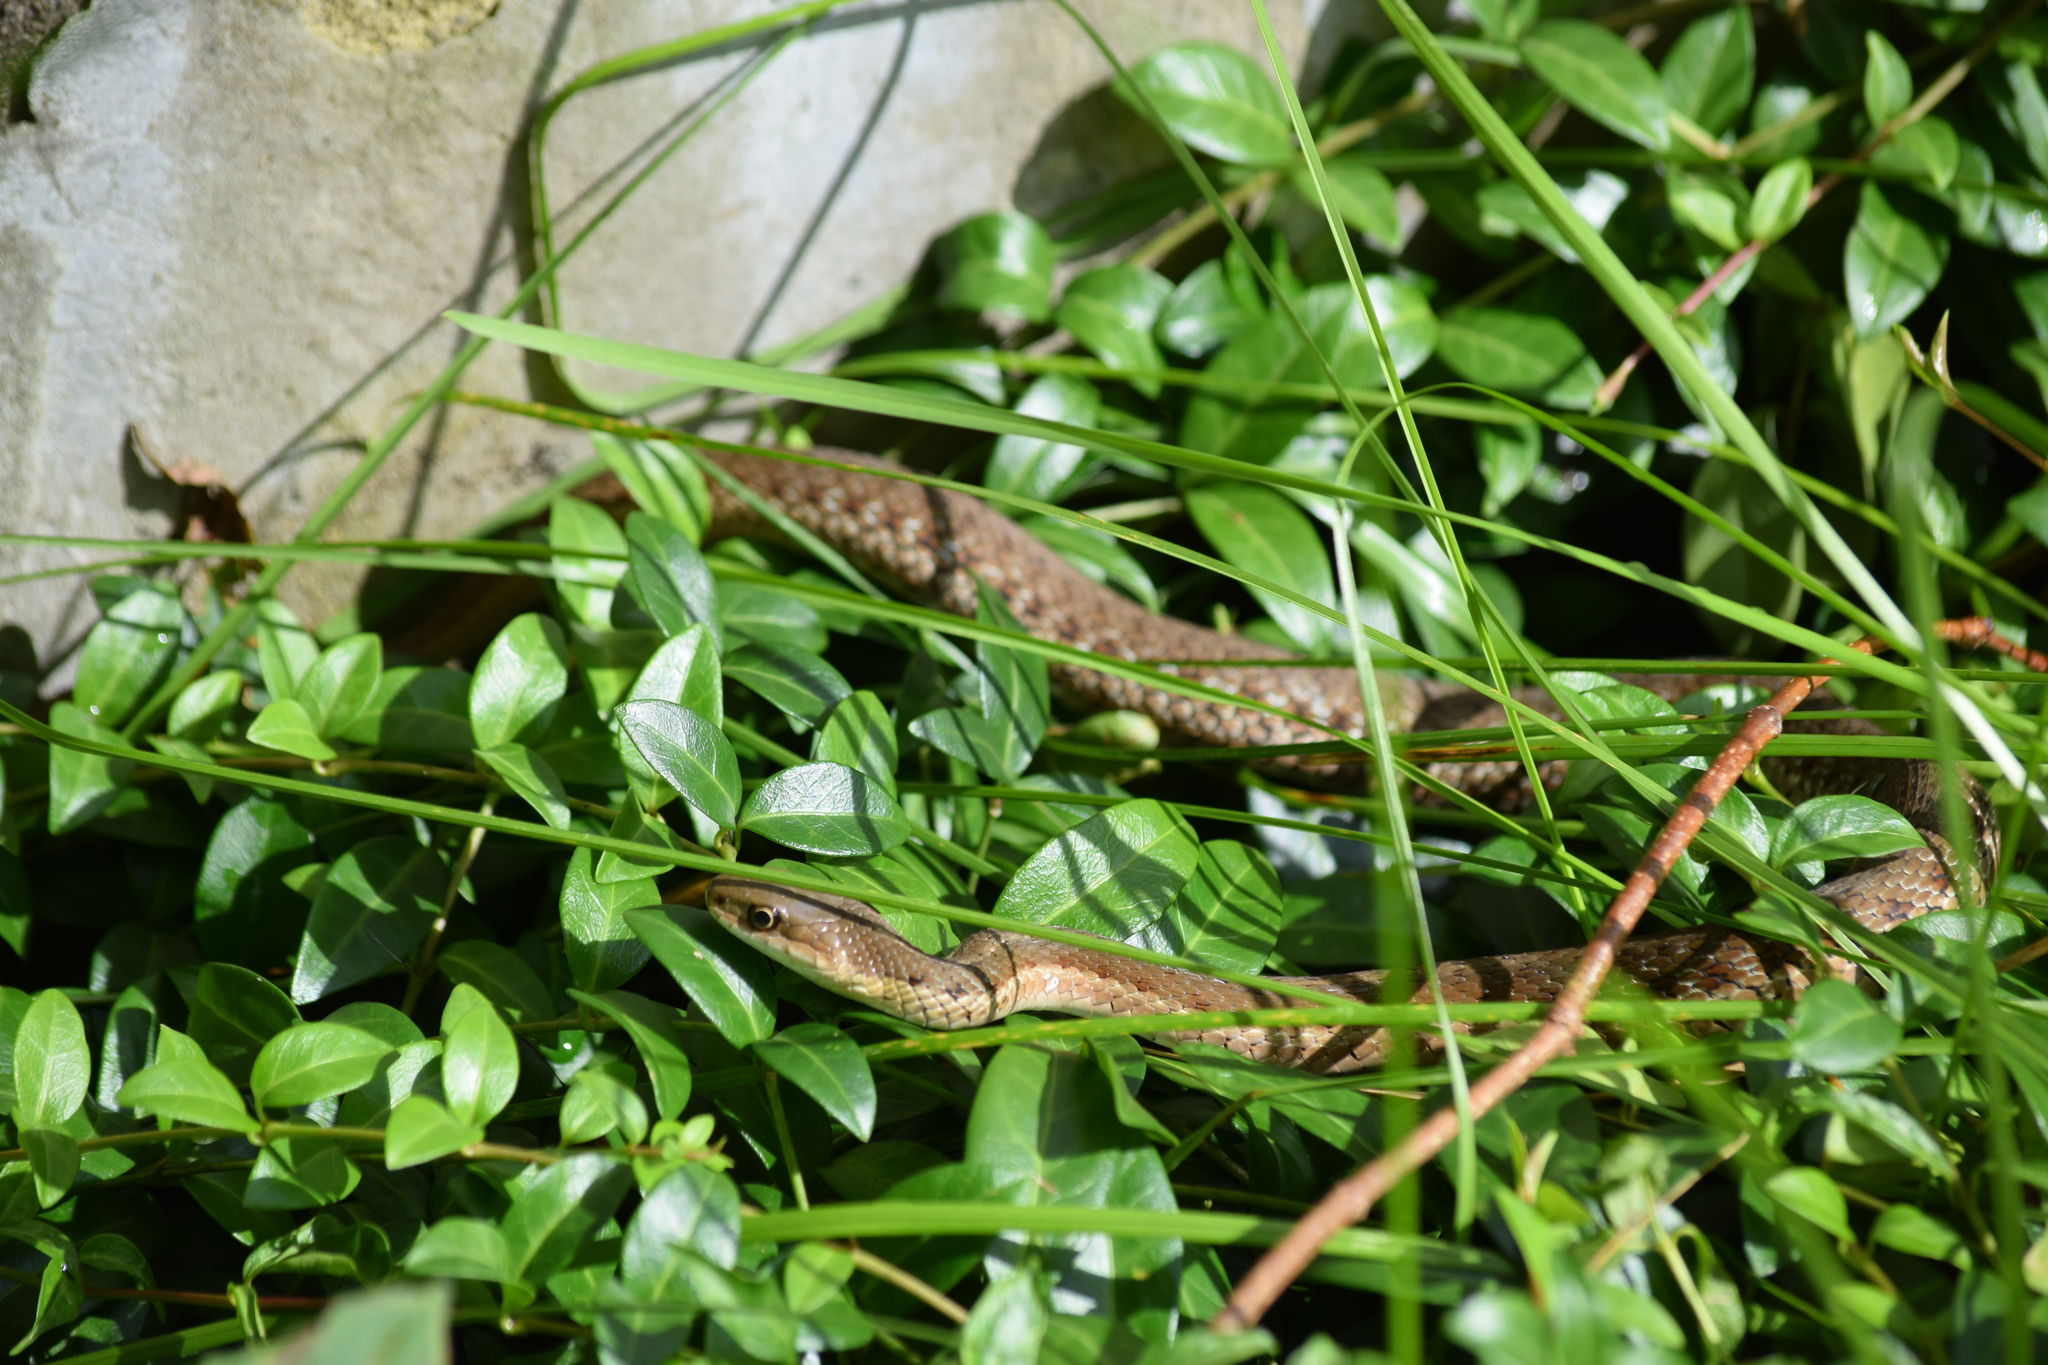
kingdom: Animalia
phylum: Chordata
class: Squamata
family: Colubridae
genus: Thamnophis
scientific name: Thamnophis sirtalis
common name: Common garter snake
